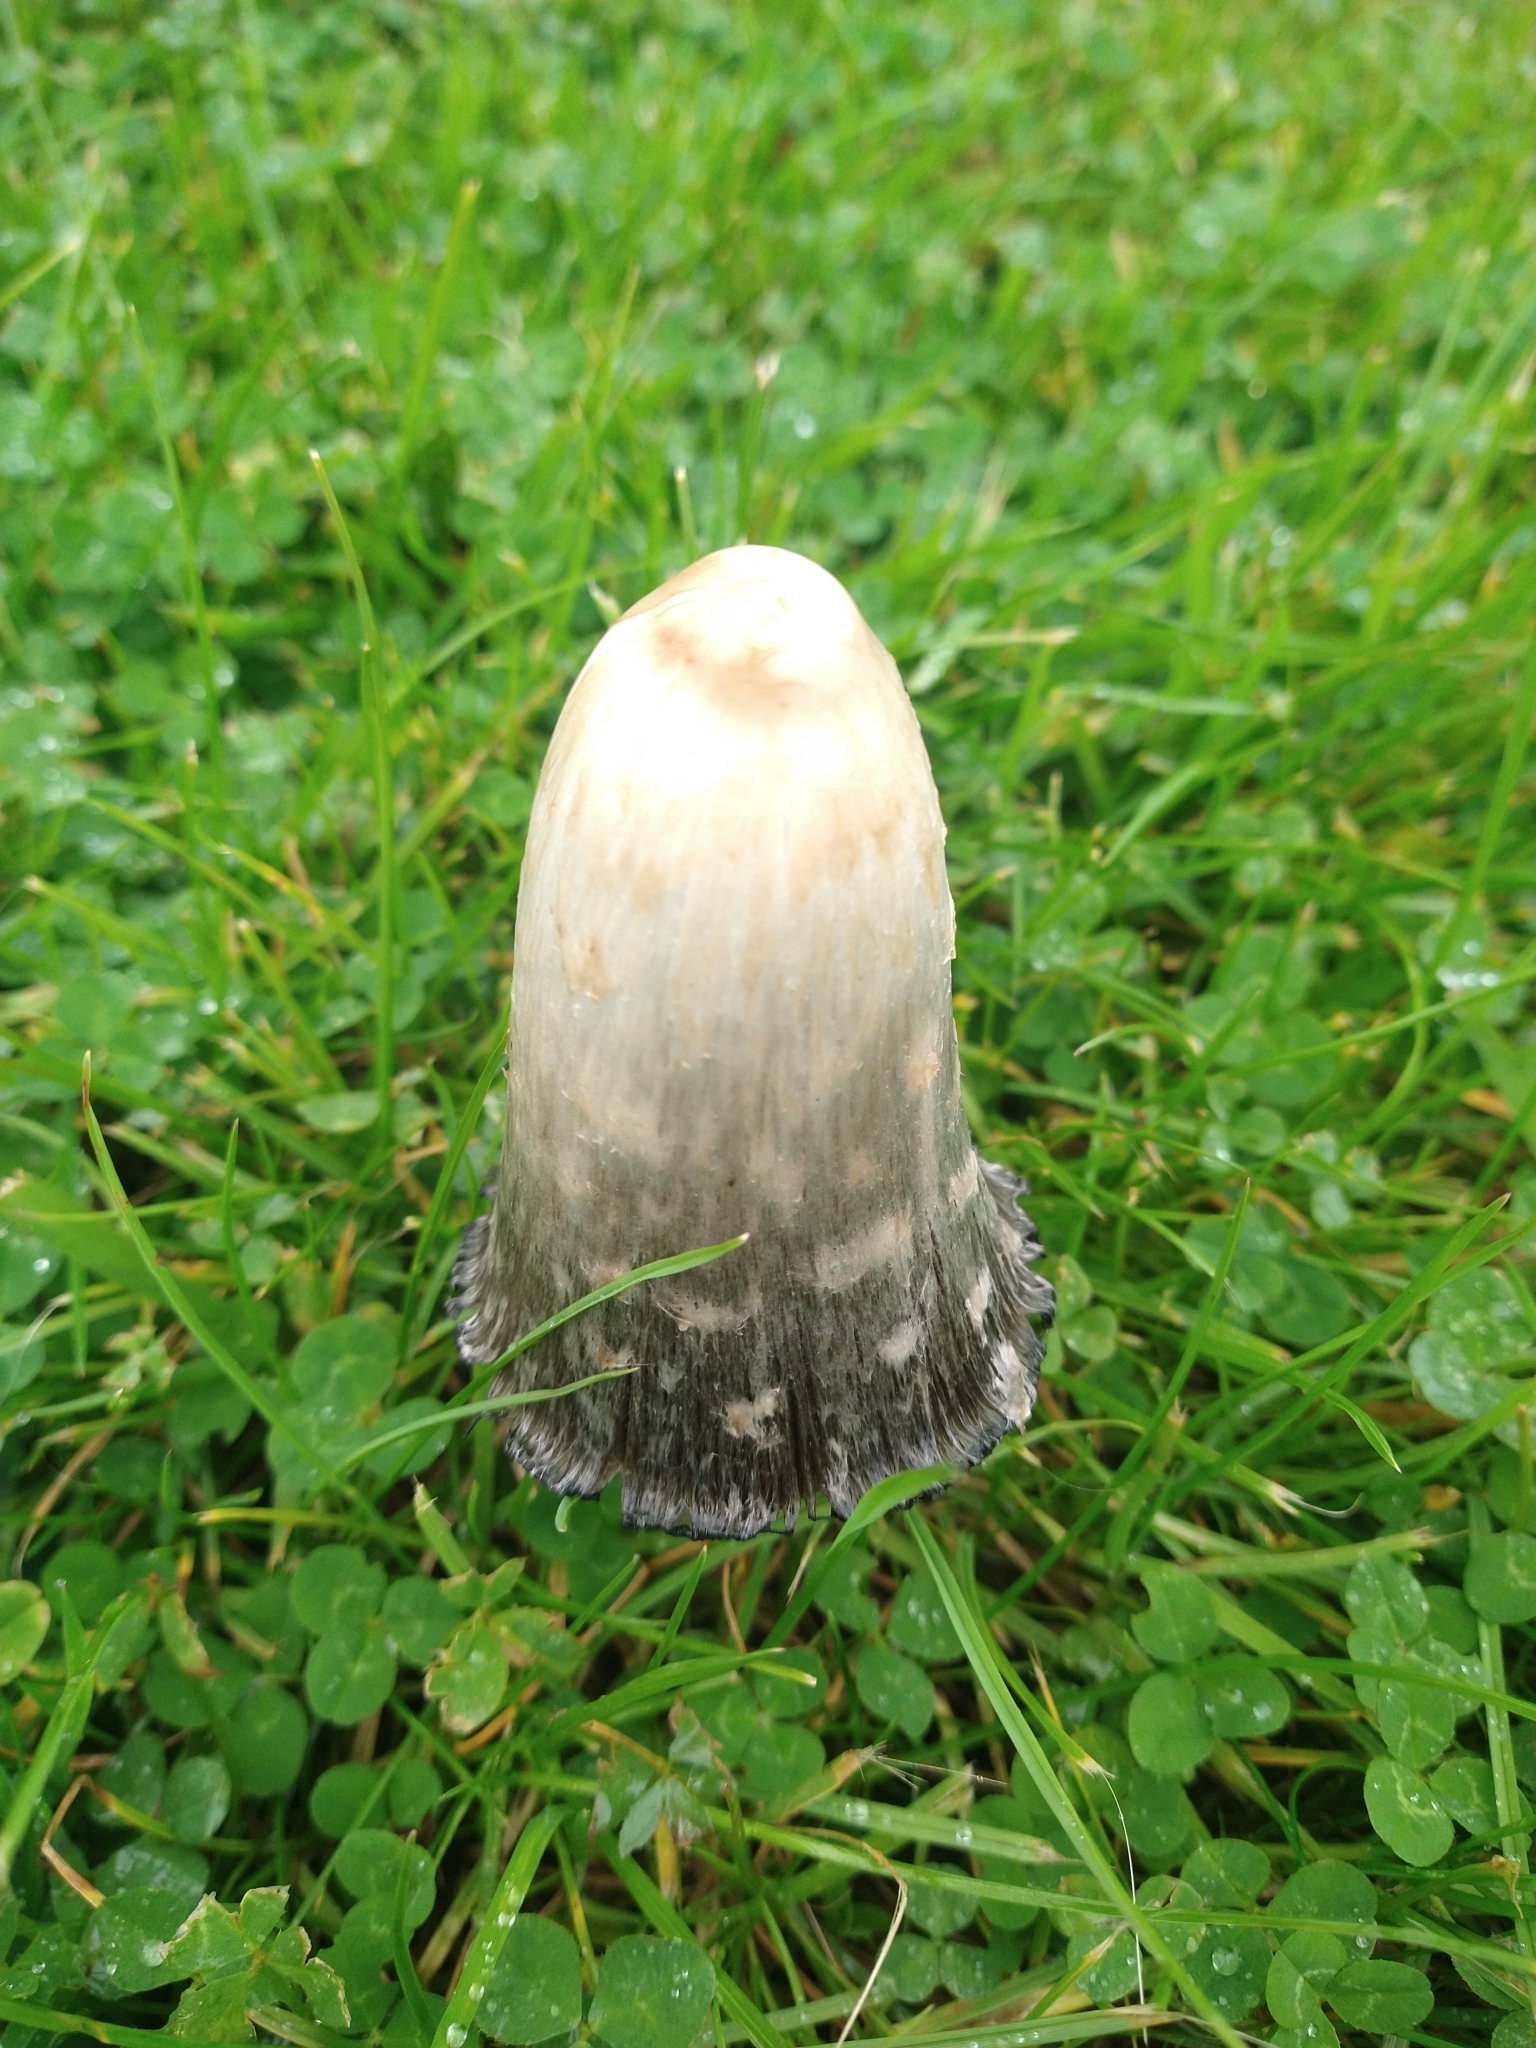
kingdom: Fungi
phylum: Basidiomycota
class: Agaricomycetes
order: Agaricales
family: Agaricaceae
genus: Coprinus
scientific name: Coprinus comatus
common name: Lawyer's wig
